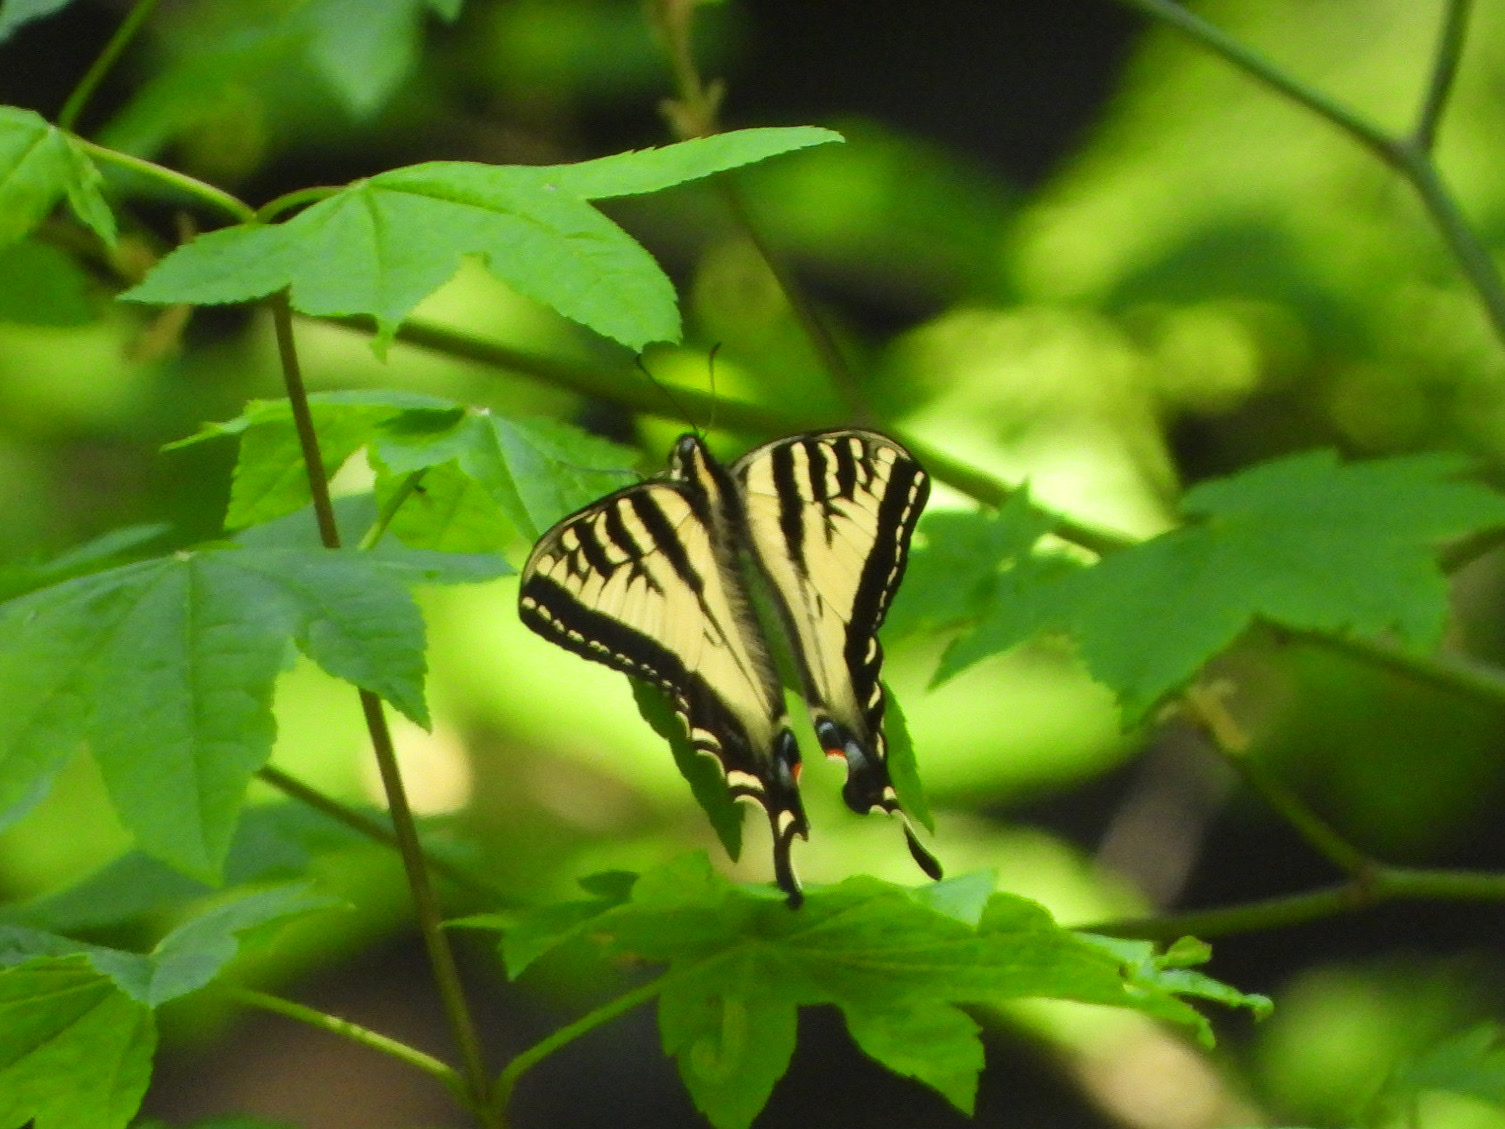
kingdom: Animalia
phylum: Arthropoda
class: Insecta
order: Lepidoptera
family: Papilionidae
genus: Papilio
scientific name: Papilio rutulus
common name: Western tiger swallowtail
